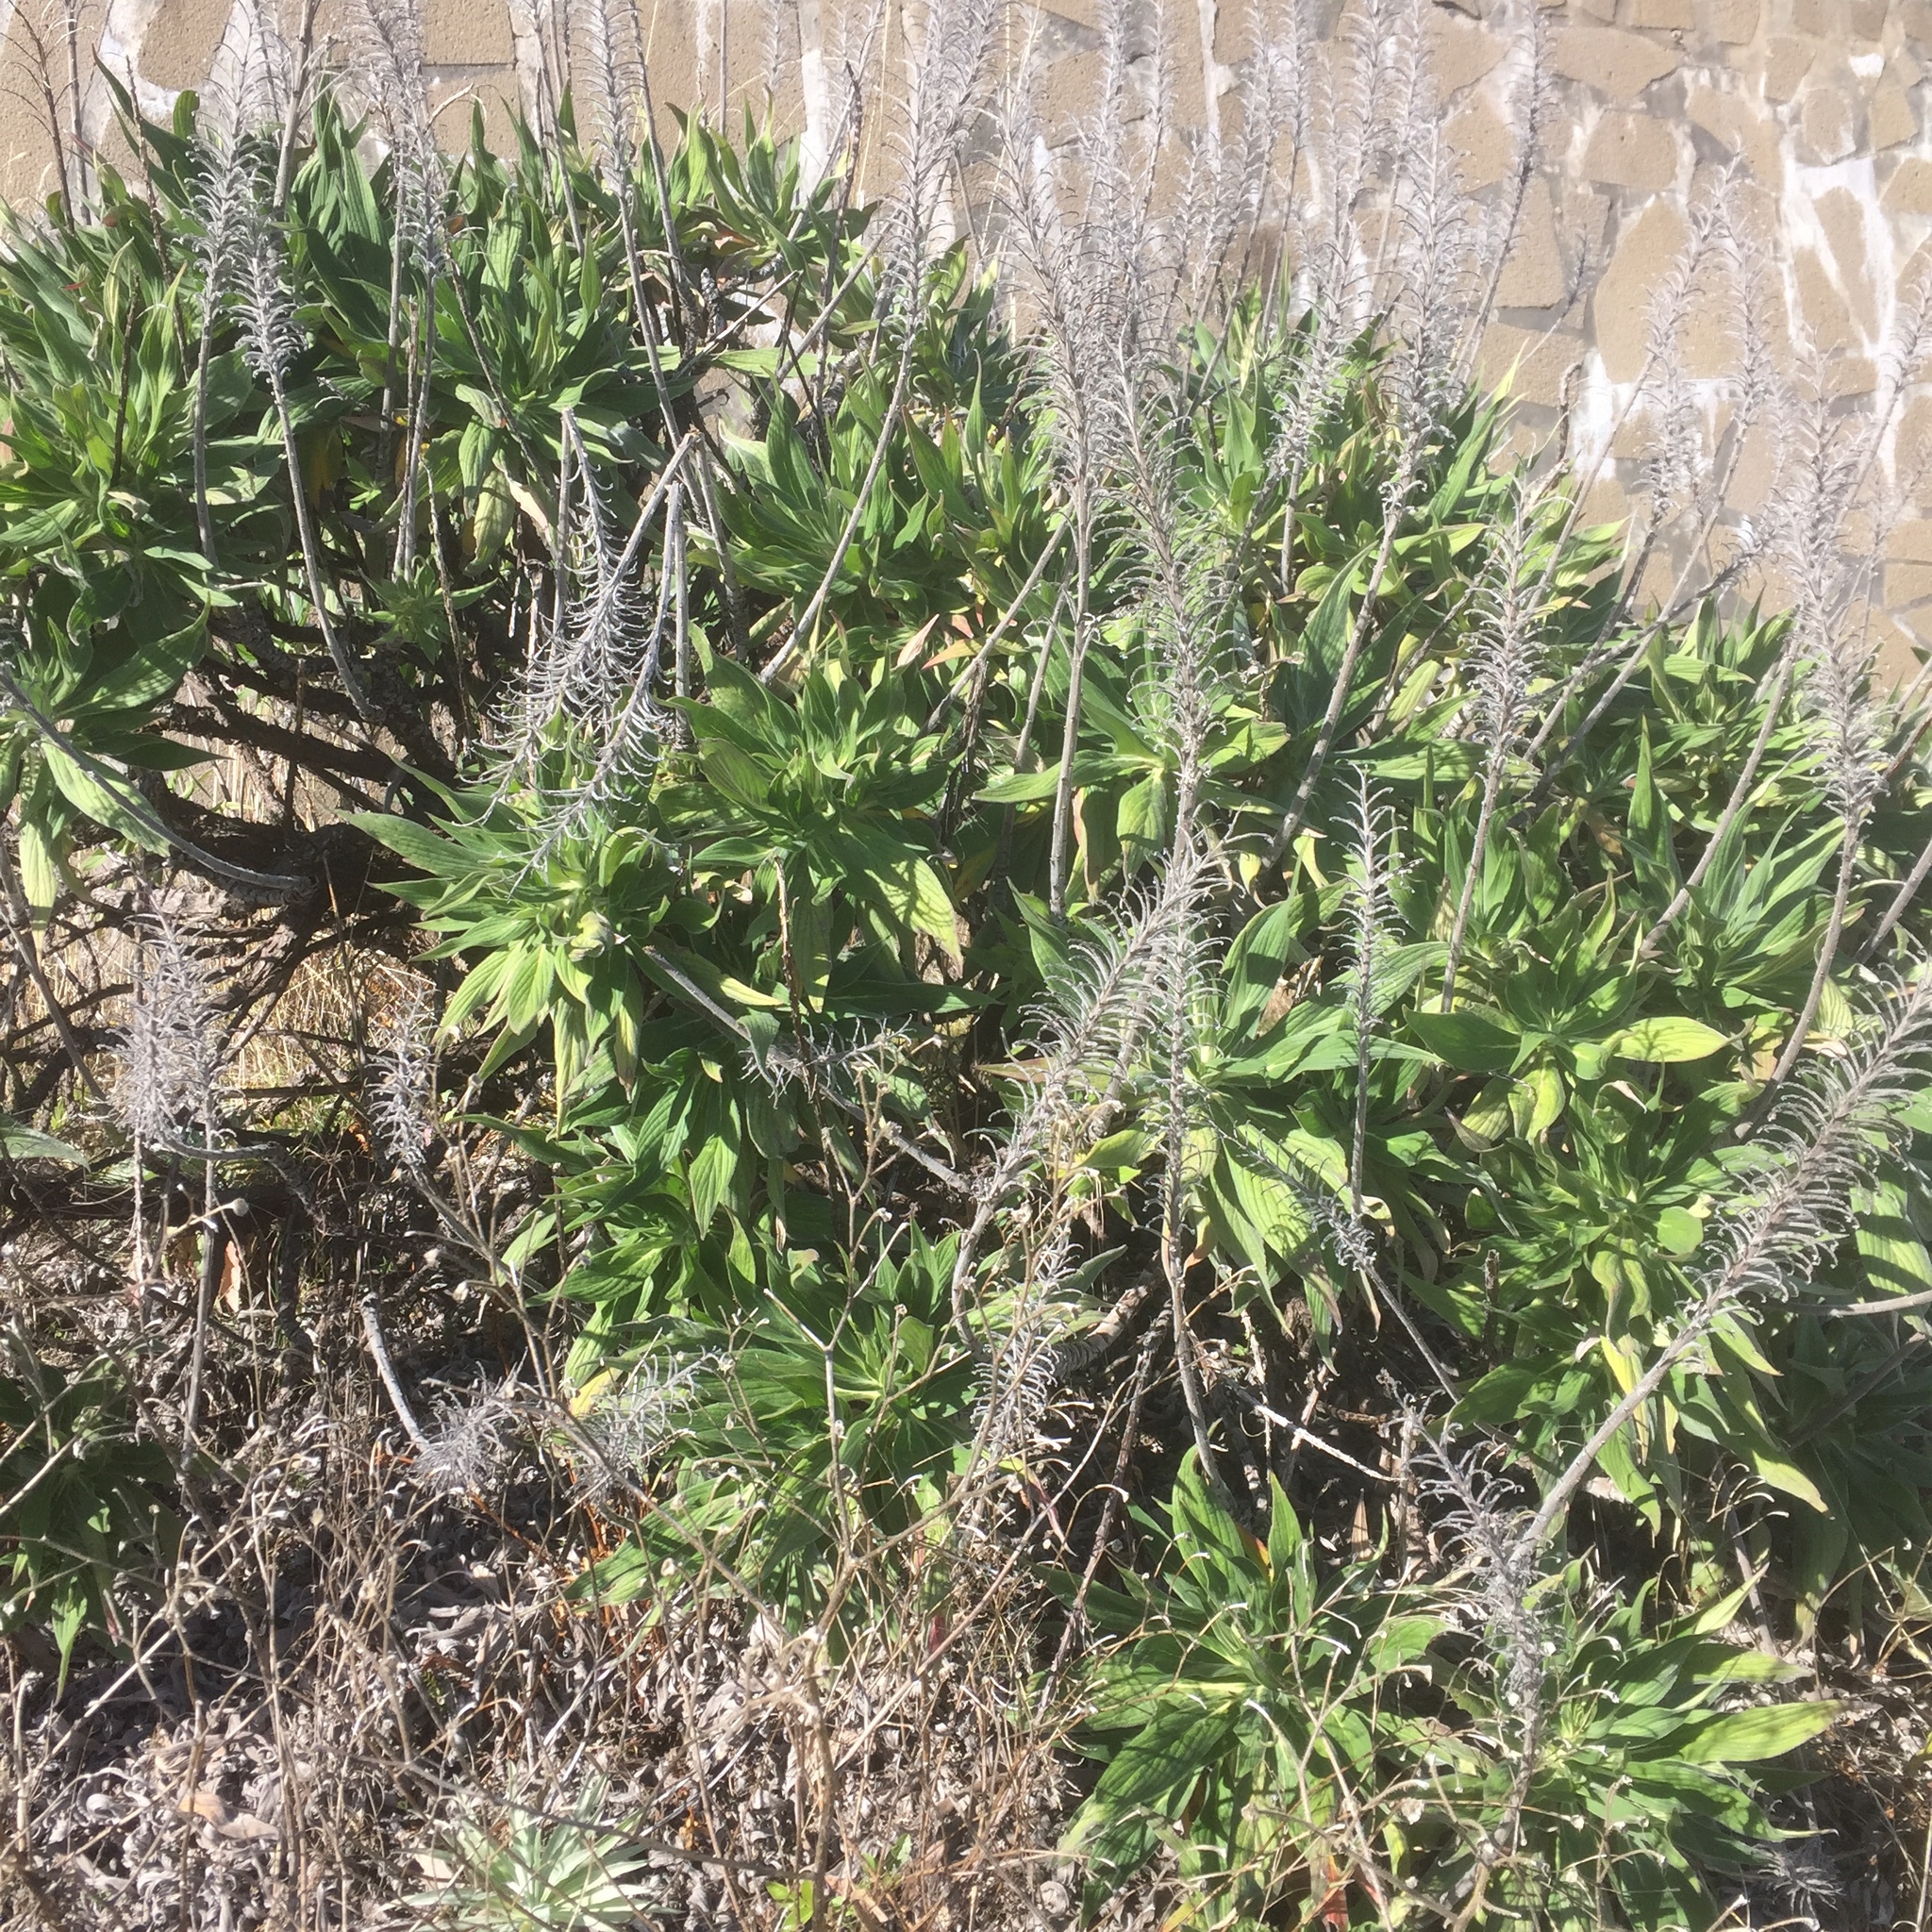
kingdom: Plantae
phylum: Tracheophyta
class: Magnoliopsida
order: Boraginales
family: Boraginaceae
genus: Echium
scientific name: Echium candicans
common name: Pride of madeira
